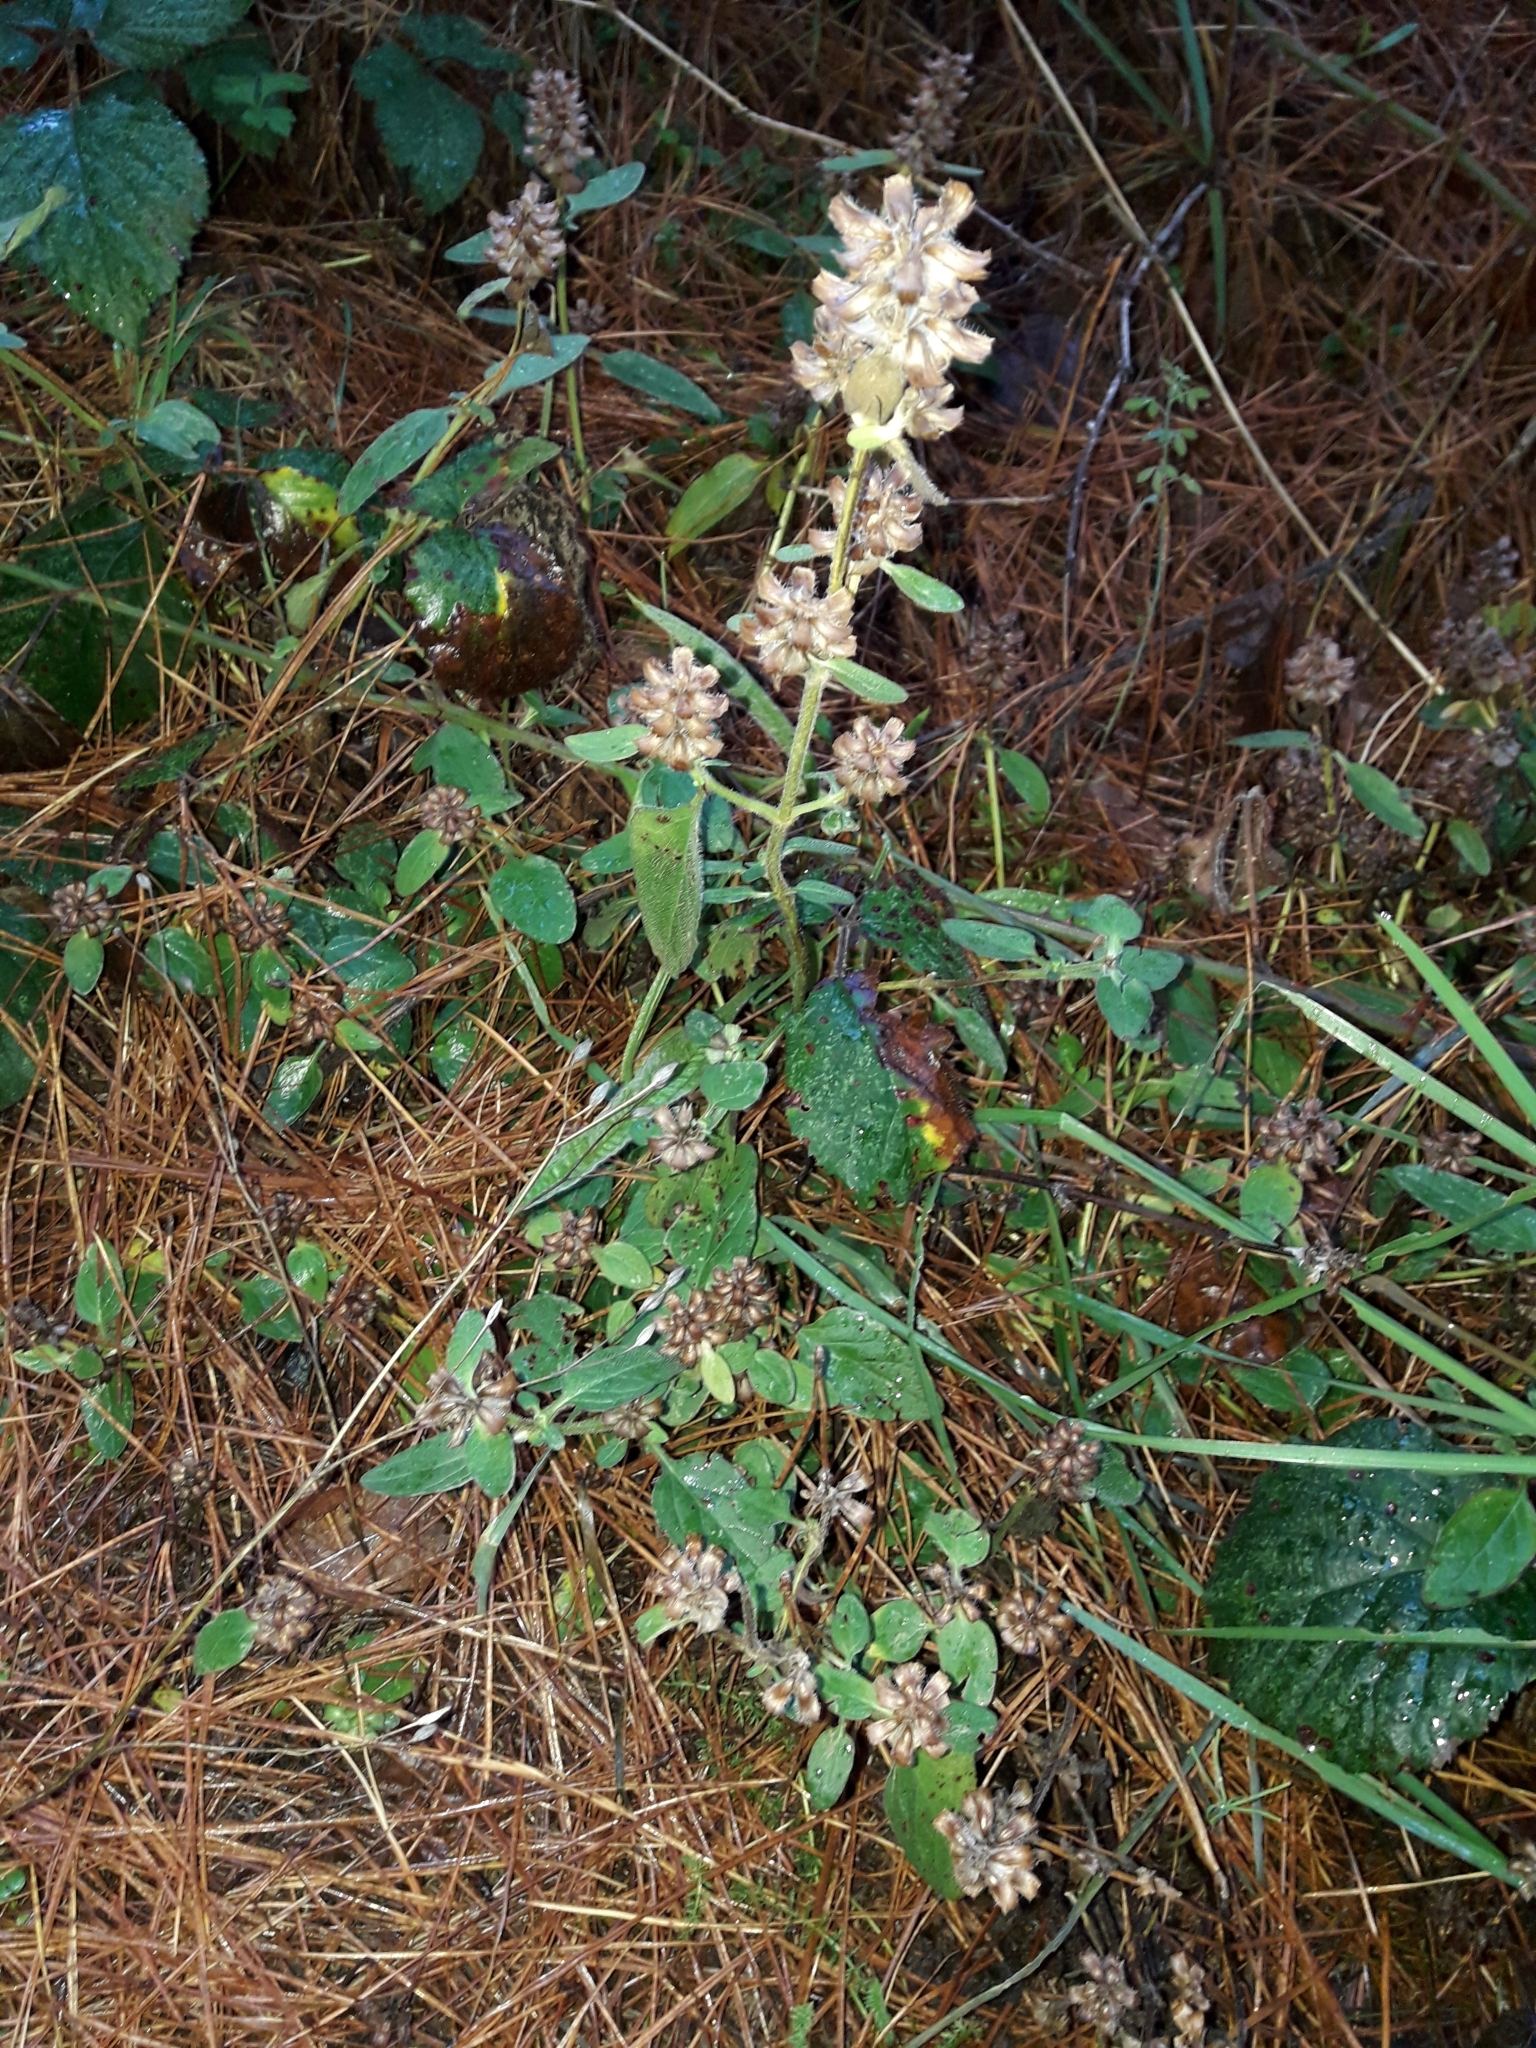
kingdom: Plantae
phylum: Tracheophyta
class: Magnoliopsida
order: Lamiales
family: Lamiaceae
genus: Prunella
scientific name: Prunella vulgaris
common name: Heal-all
